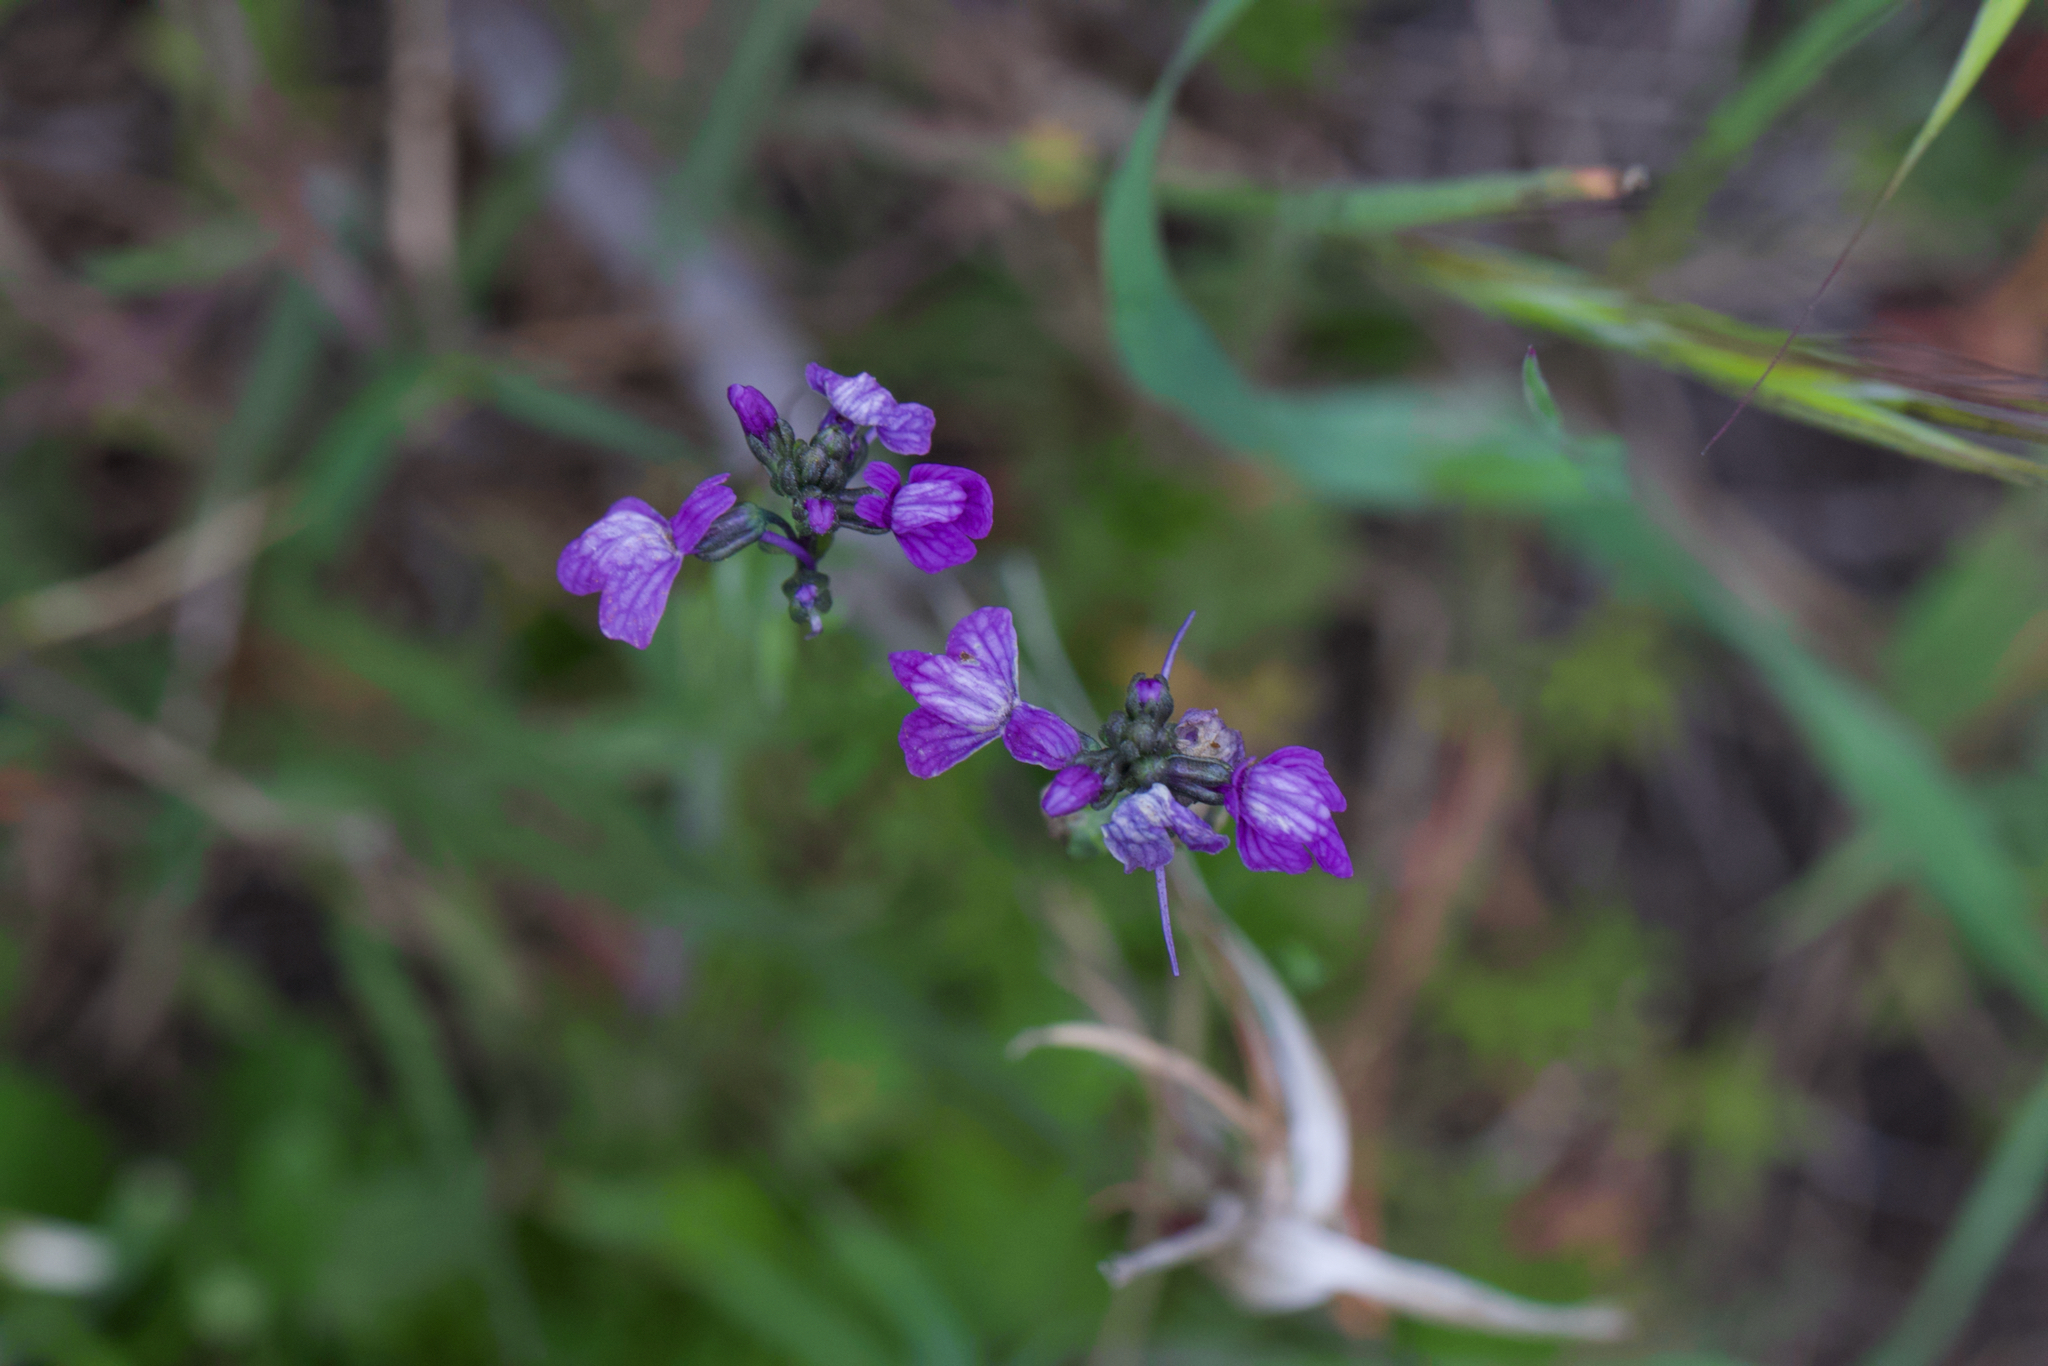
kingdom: Plantae
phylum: Tracheophyta
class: Magnoliopsida
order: Lamiales
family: Plantaginaceae
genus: Nuttallanthus
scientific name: Nuttallanthus texanus
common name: Texas toadflax
